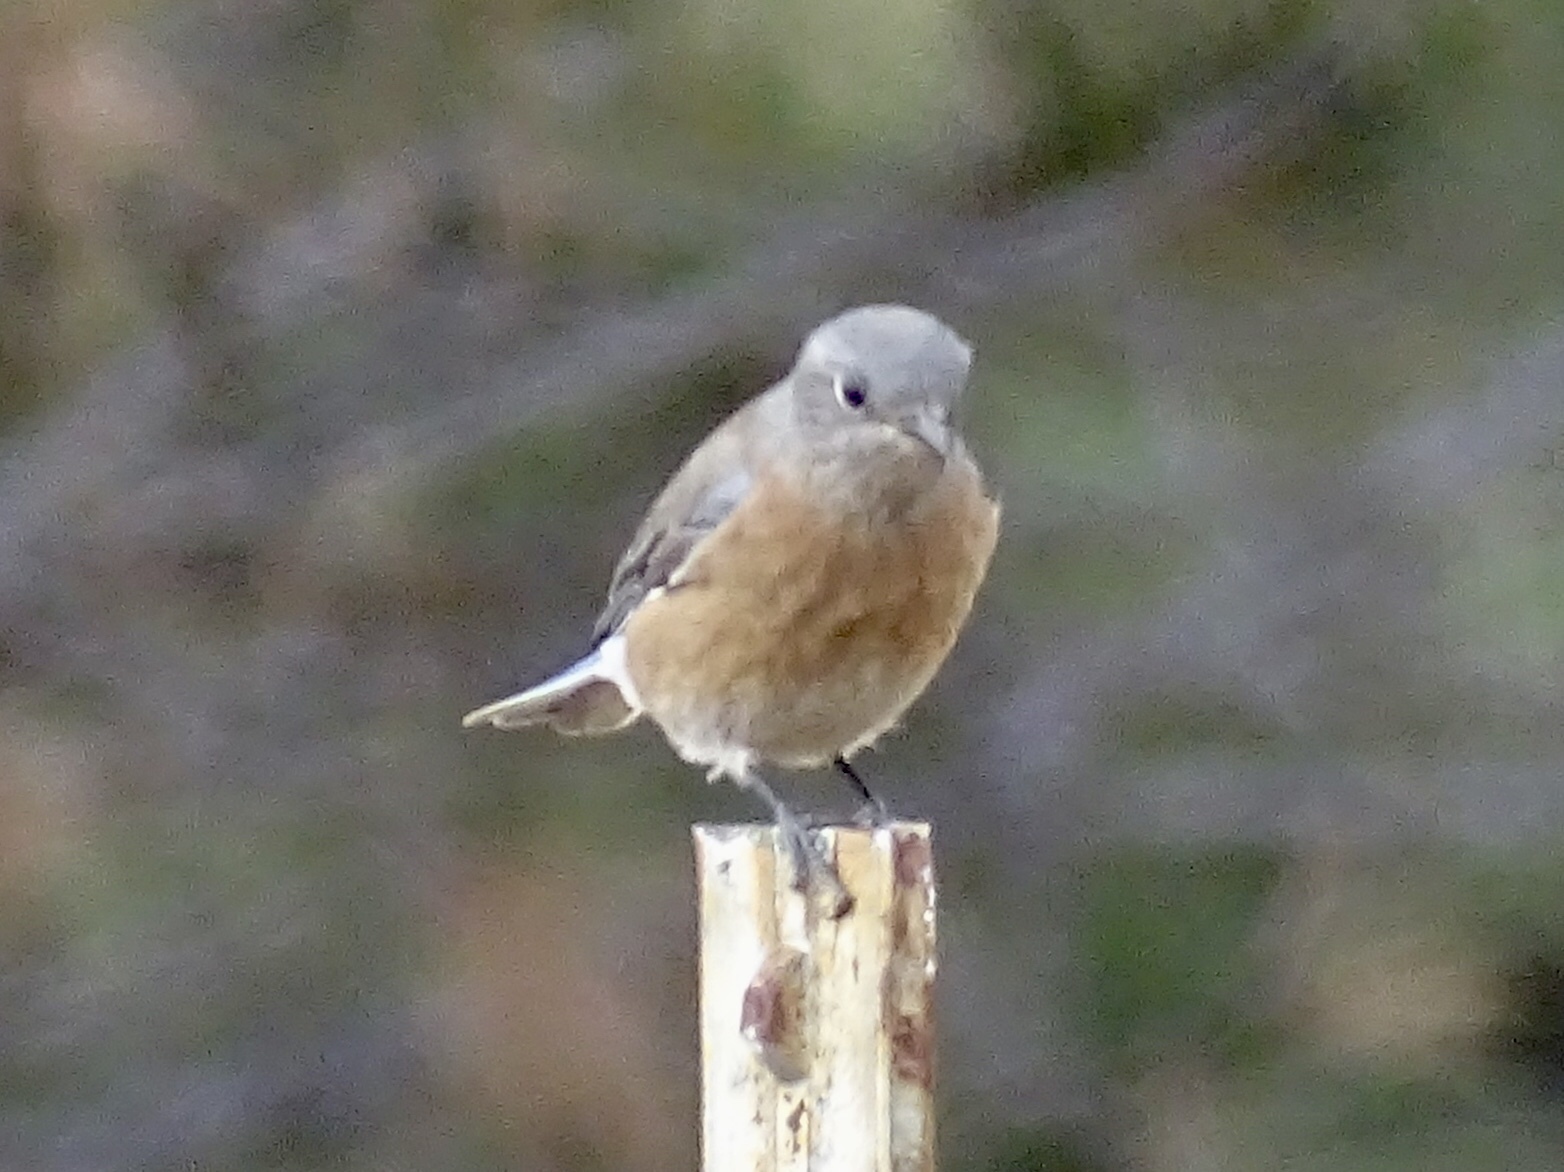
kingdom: Animalia
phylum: Chordata
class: Aves
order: Passeriformes
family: Turdidae
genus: Sialia
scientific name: Sialia mexicana
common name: Western bluebird
